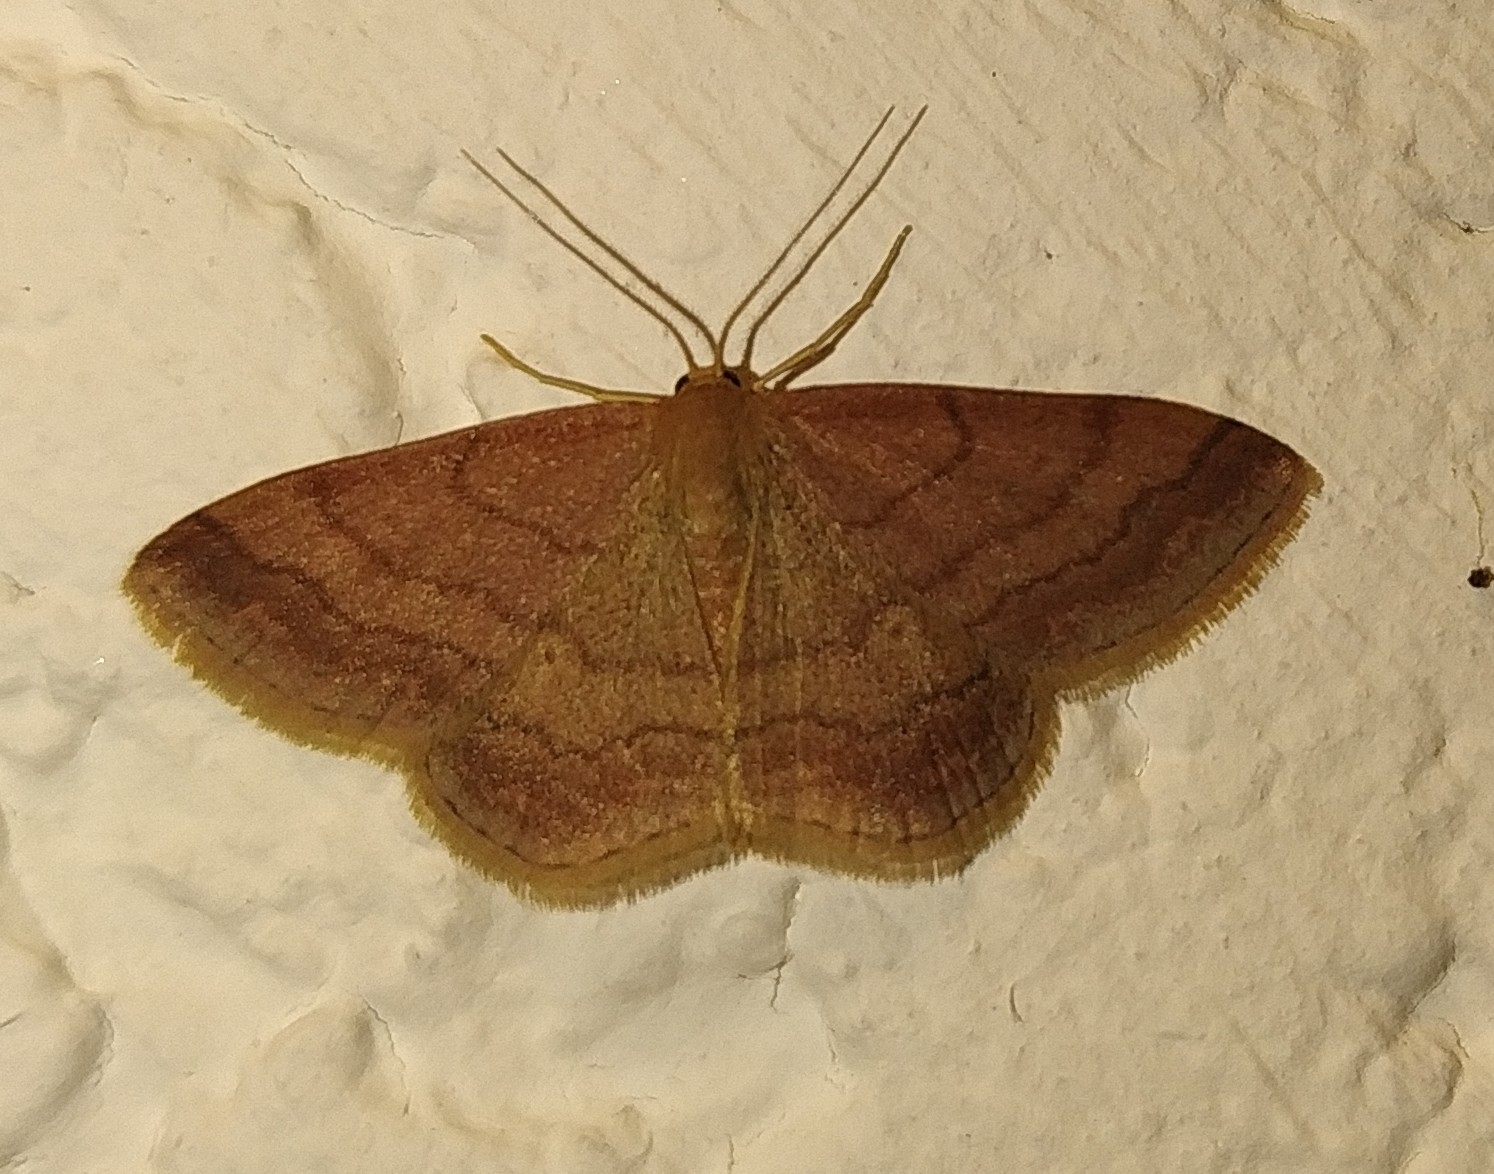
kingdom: Animalia
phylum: Arthropoda
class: Insecta
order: Lepidoptera
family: Geometridae
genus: Scopula
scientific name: Scopula rubiginata
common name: Tawny wave
